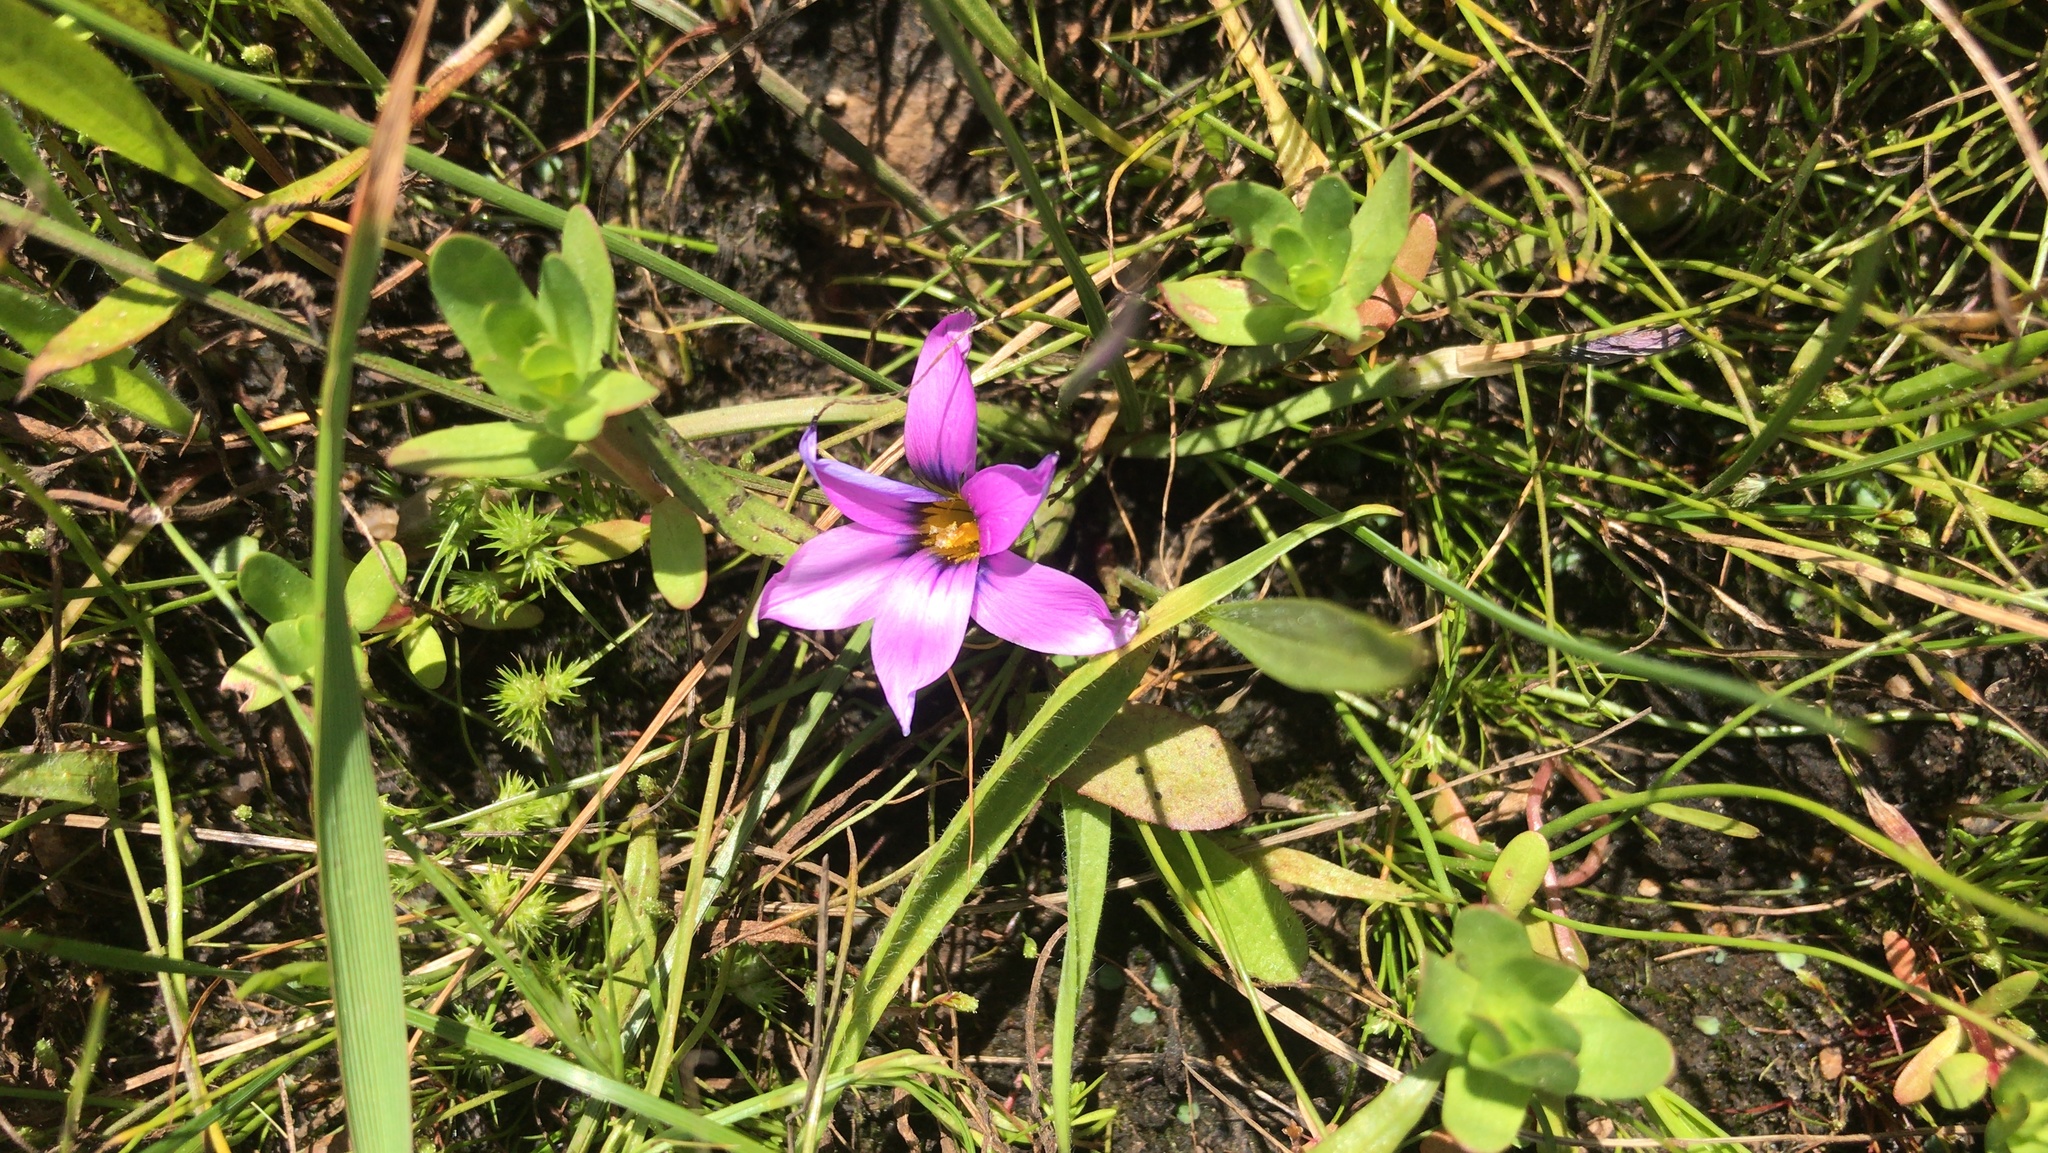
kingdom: Plantae
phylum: Tracheophyta
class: Liliopsida
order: Asparagales
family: Iridaceae
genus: Romulea
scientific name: Romulea rosea
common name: Oniongrass
